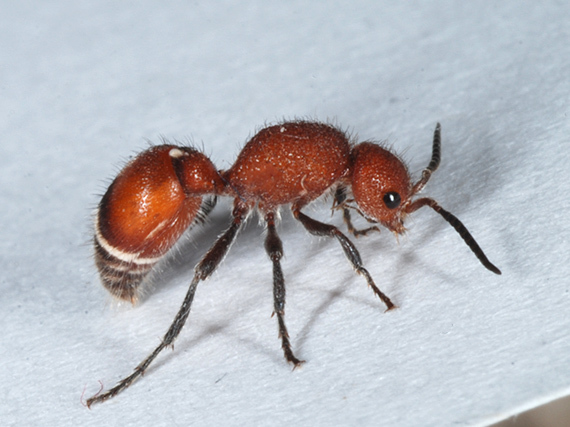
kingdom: Animalia
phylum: Arthropoda
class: Insecta
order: Hymenoptera
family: Mutillidae
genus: Sphaeropthalma
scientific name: Sphaeropthalma
